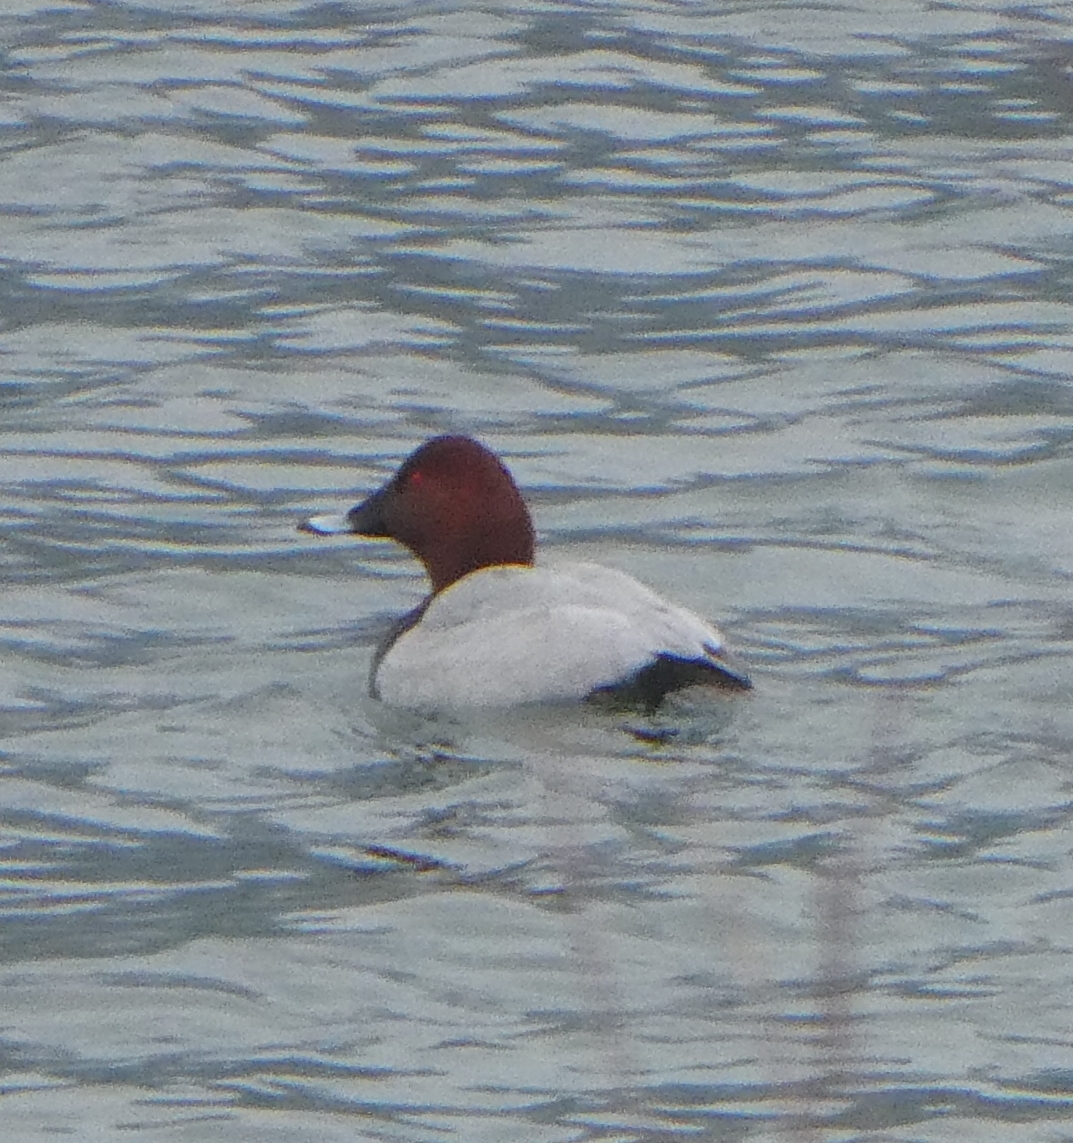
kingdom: Animalia
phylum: Chordata
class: Aves
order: Anseriformes
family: Anatidae
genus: Aythya
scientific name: Aythya ferina
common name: Common pochard
